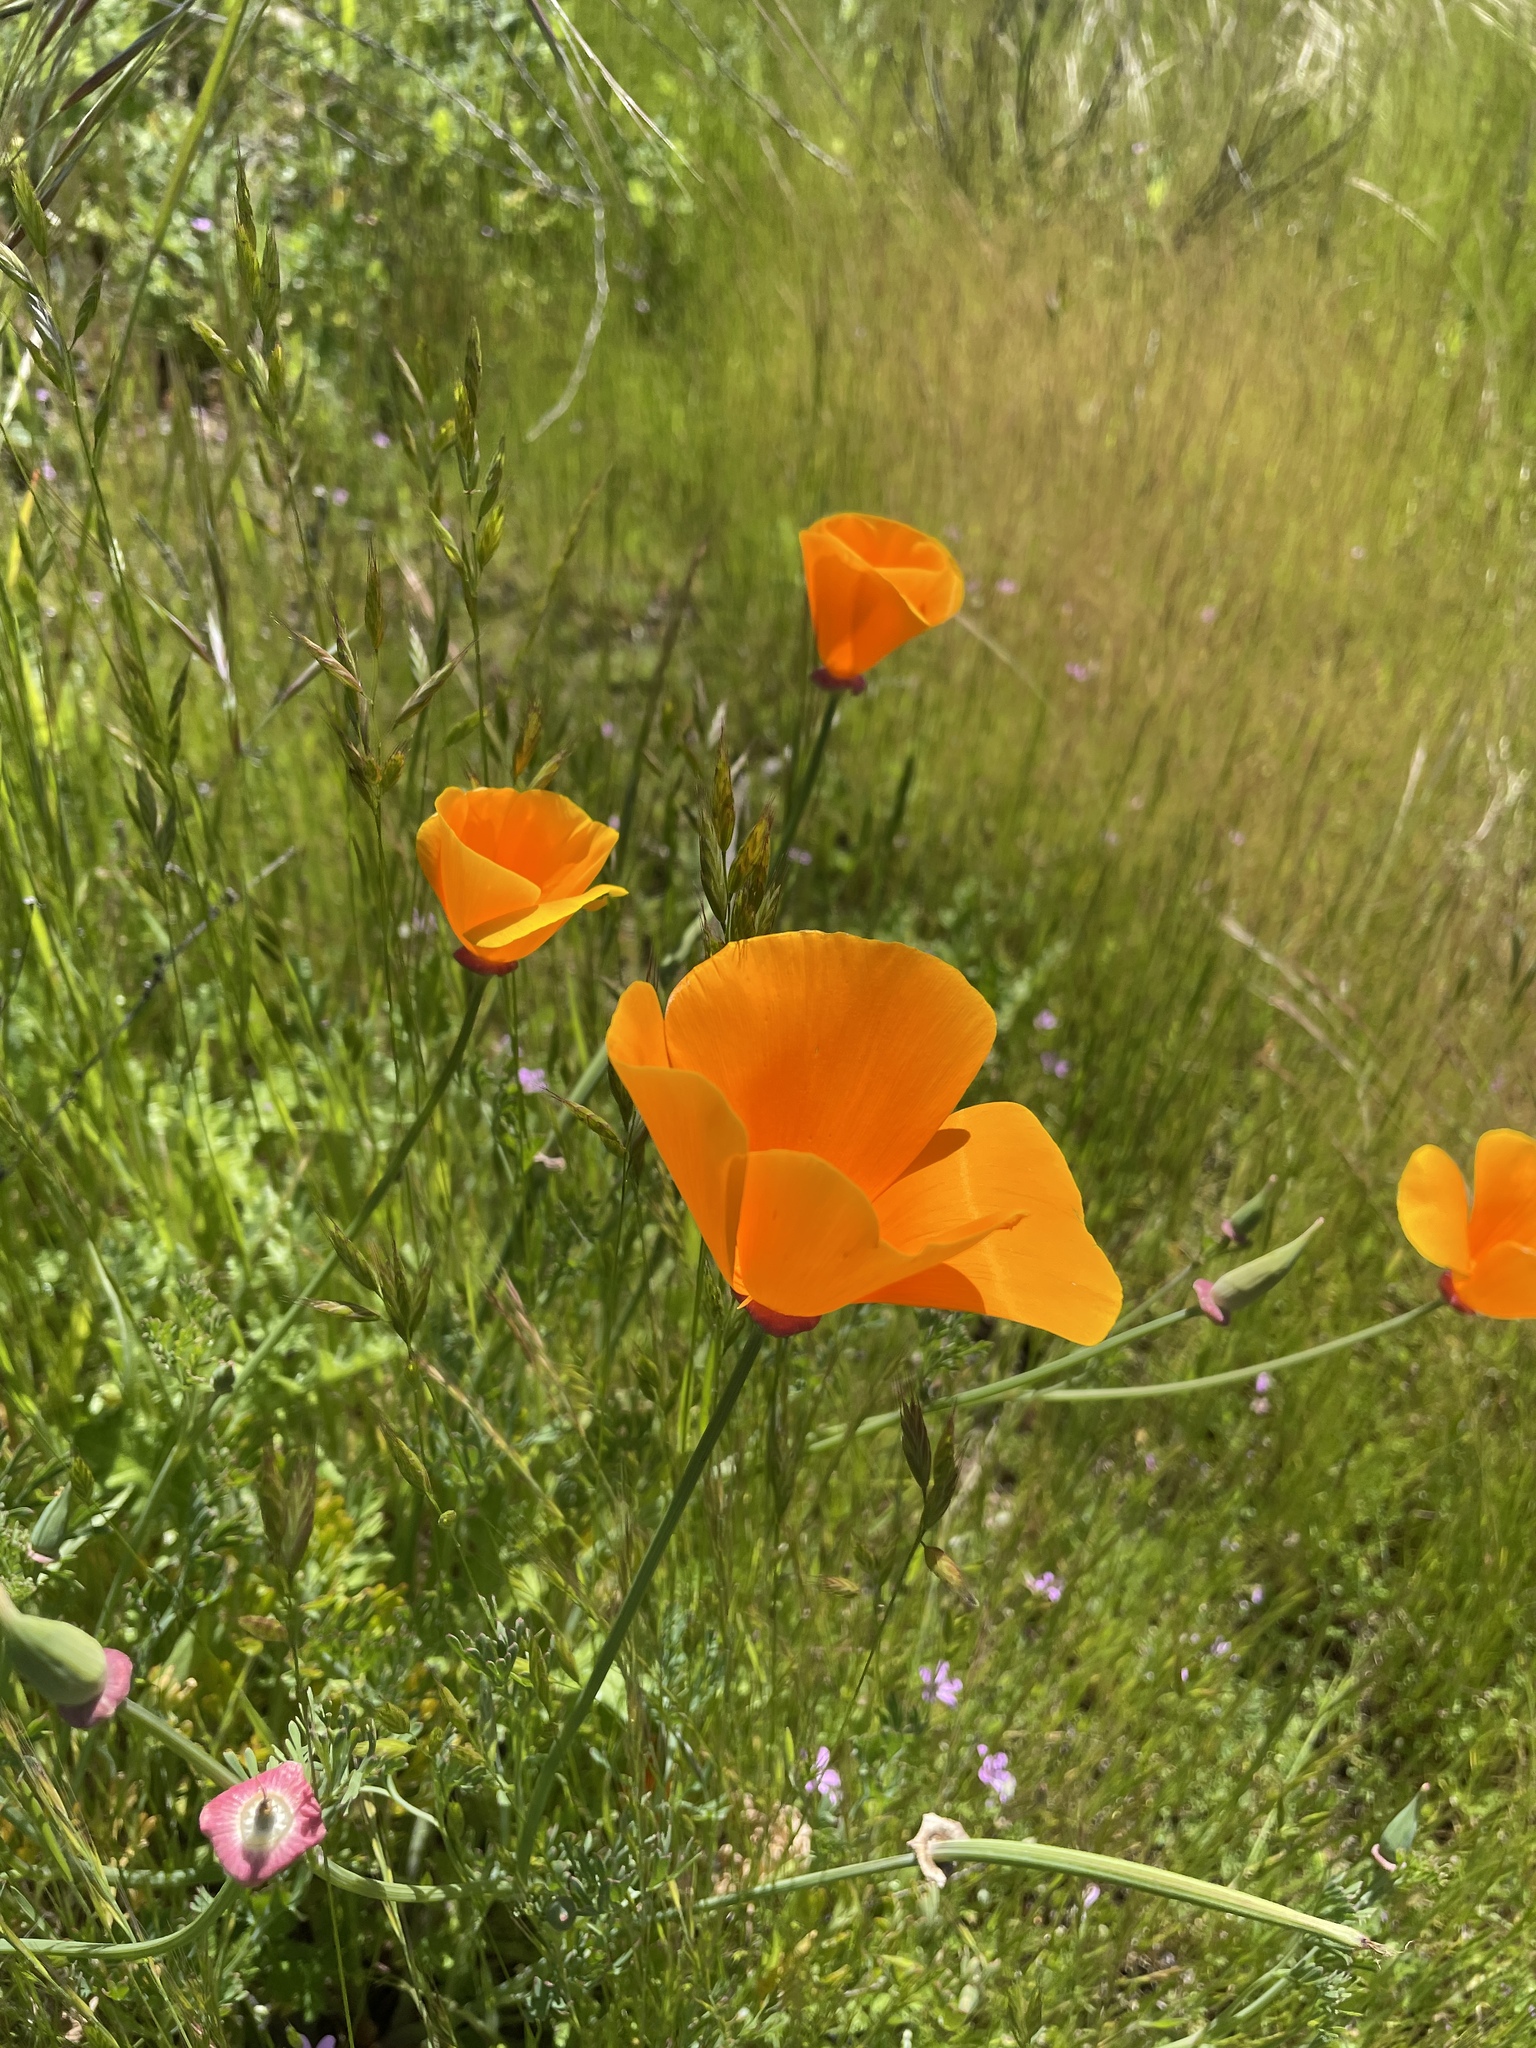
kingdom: Plantae
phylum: Tracheophyta
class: Magnoliopsida
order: Ranunculales
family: Papaveraceae
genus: Eschscholzia
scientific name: Eschscholzia californica
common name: California poppy
